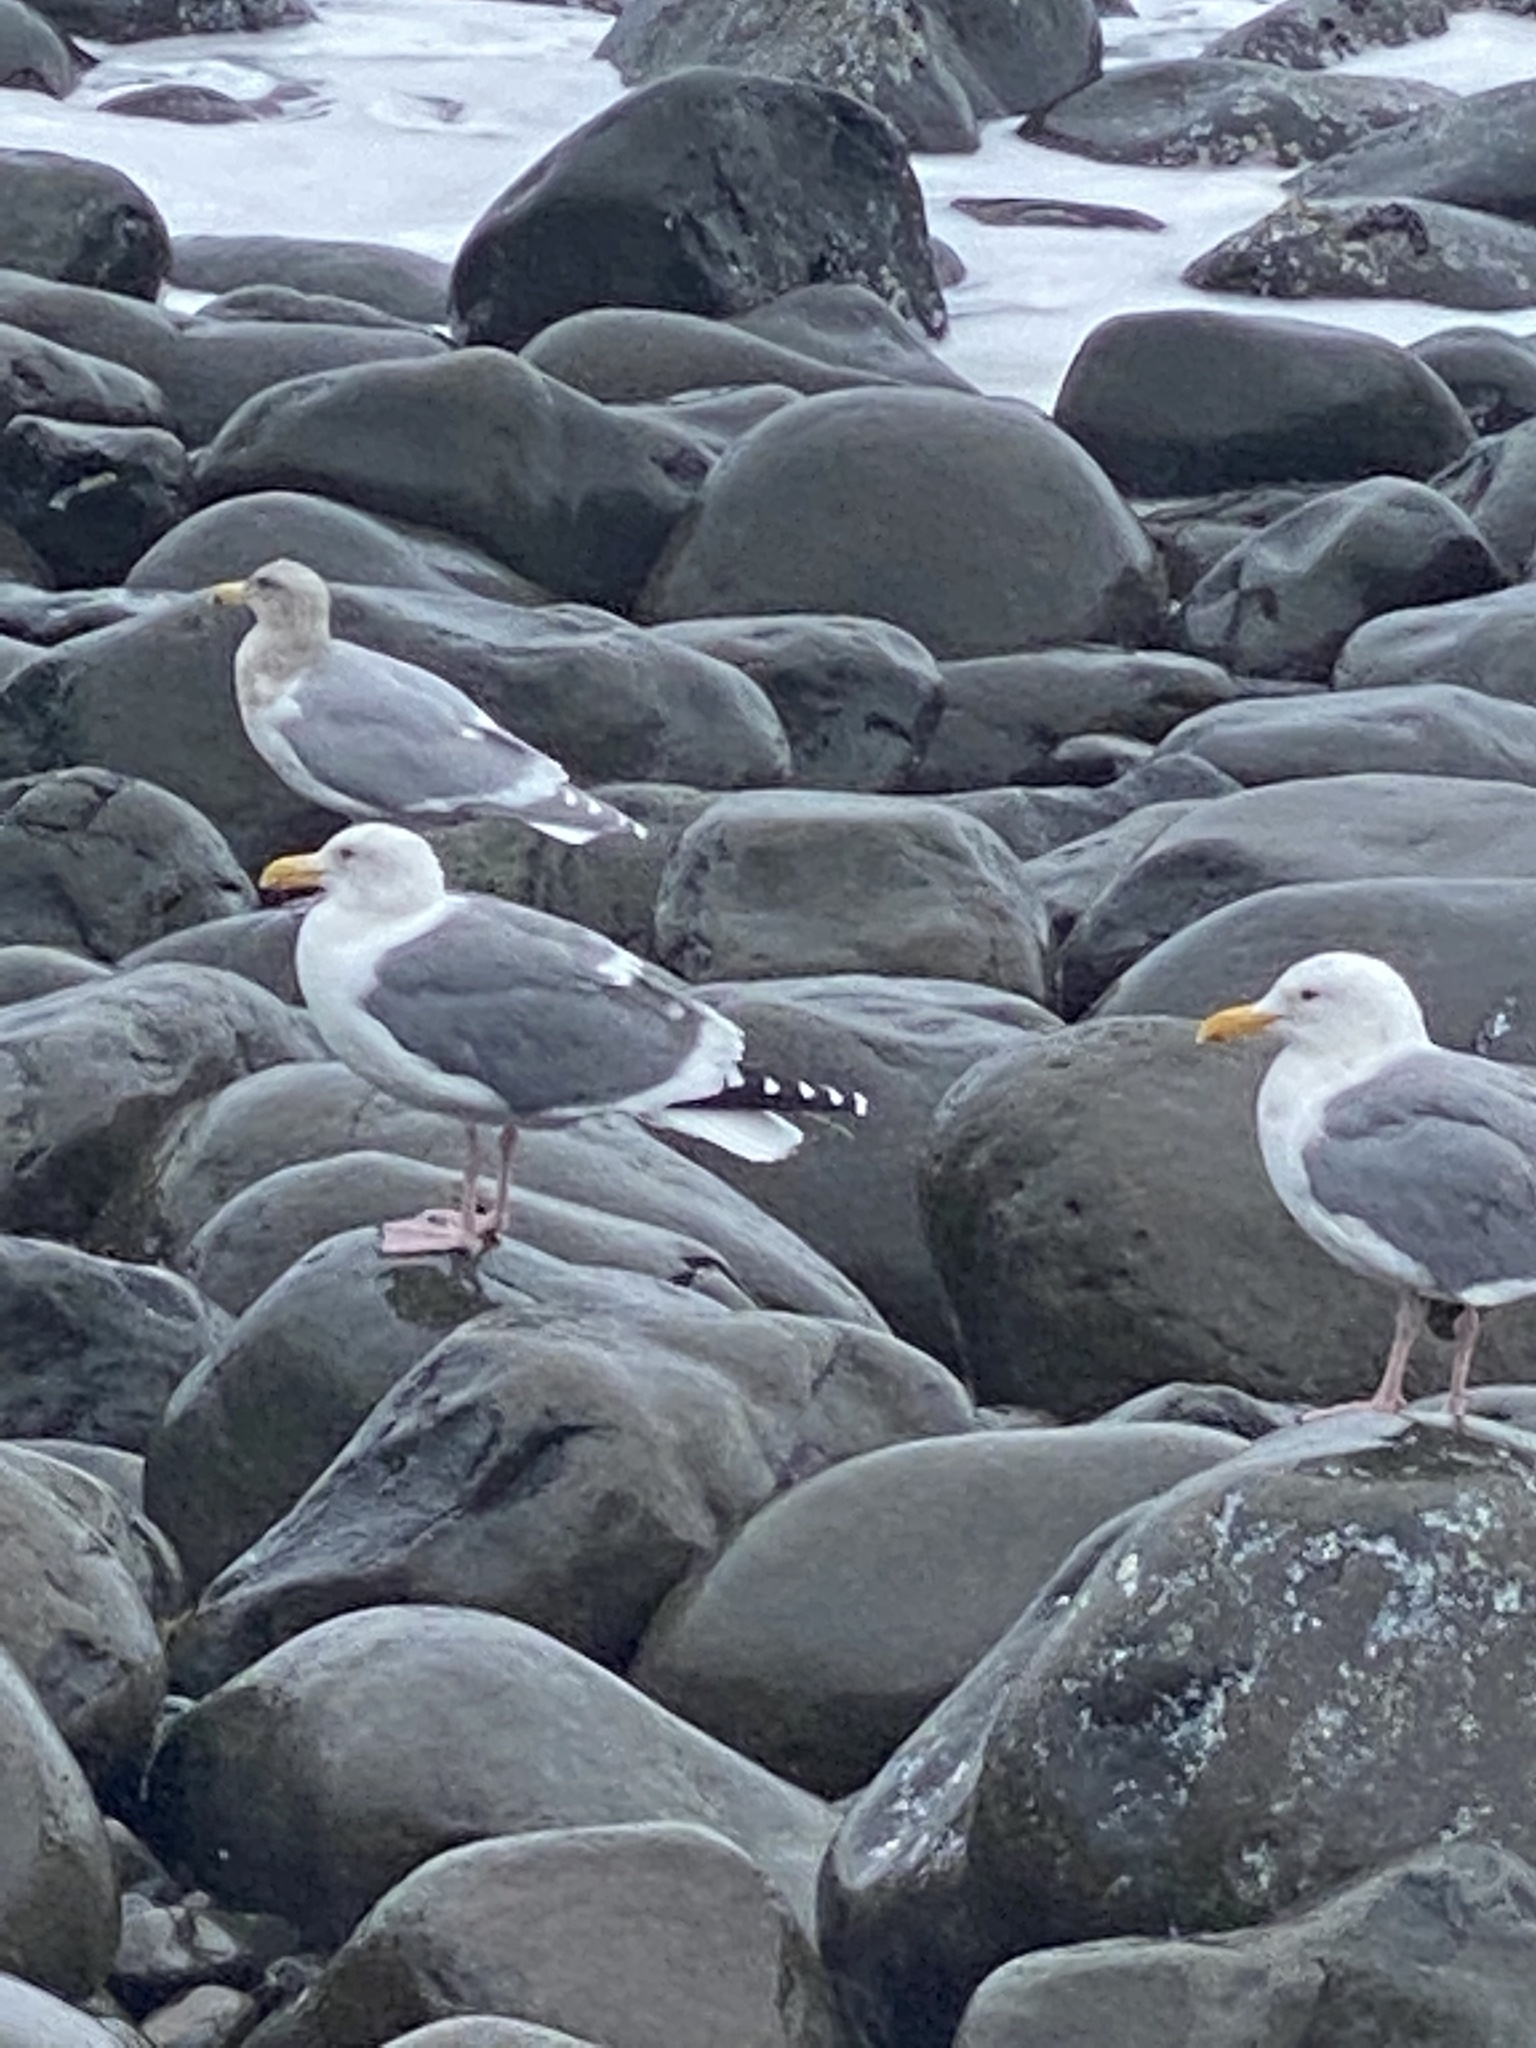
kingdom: Animalia
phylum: Chordata
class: Aves
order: Charadriiformes
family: Laridae
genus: Larus
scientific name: Larus occidentalis
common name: Western gull
